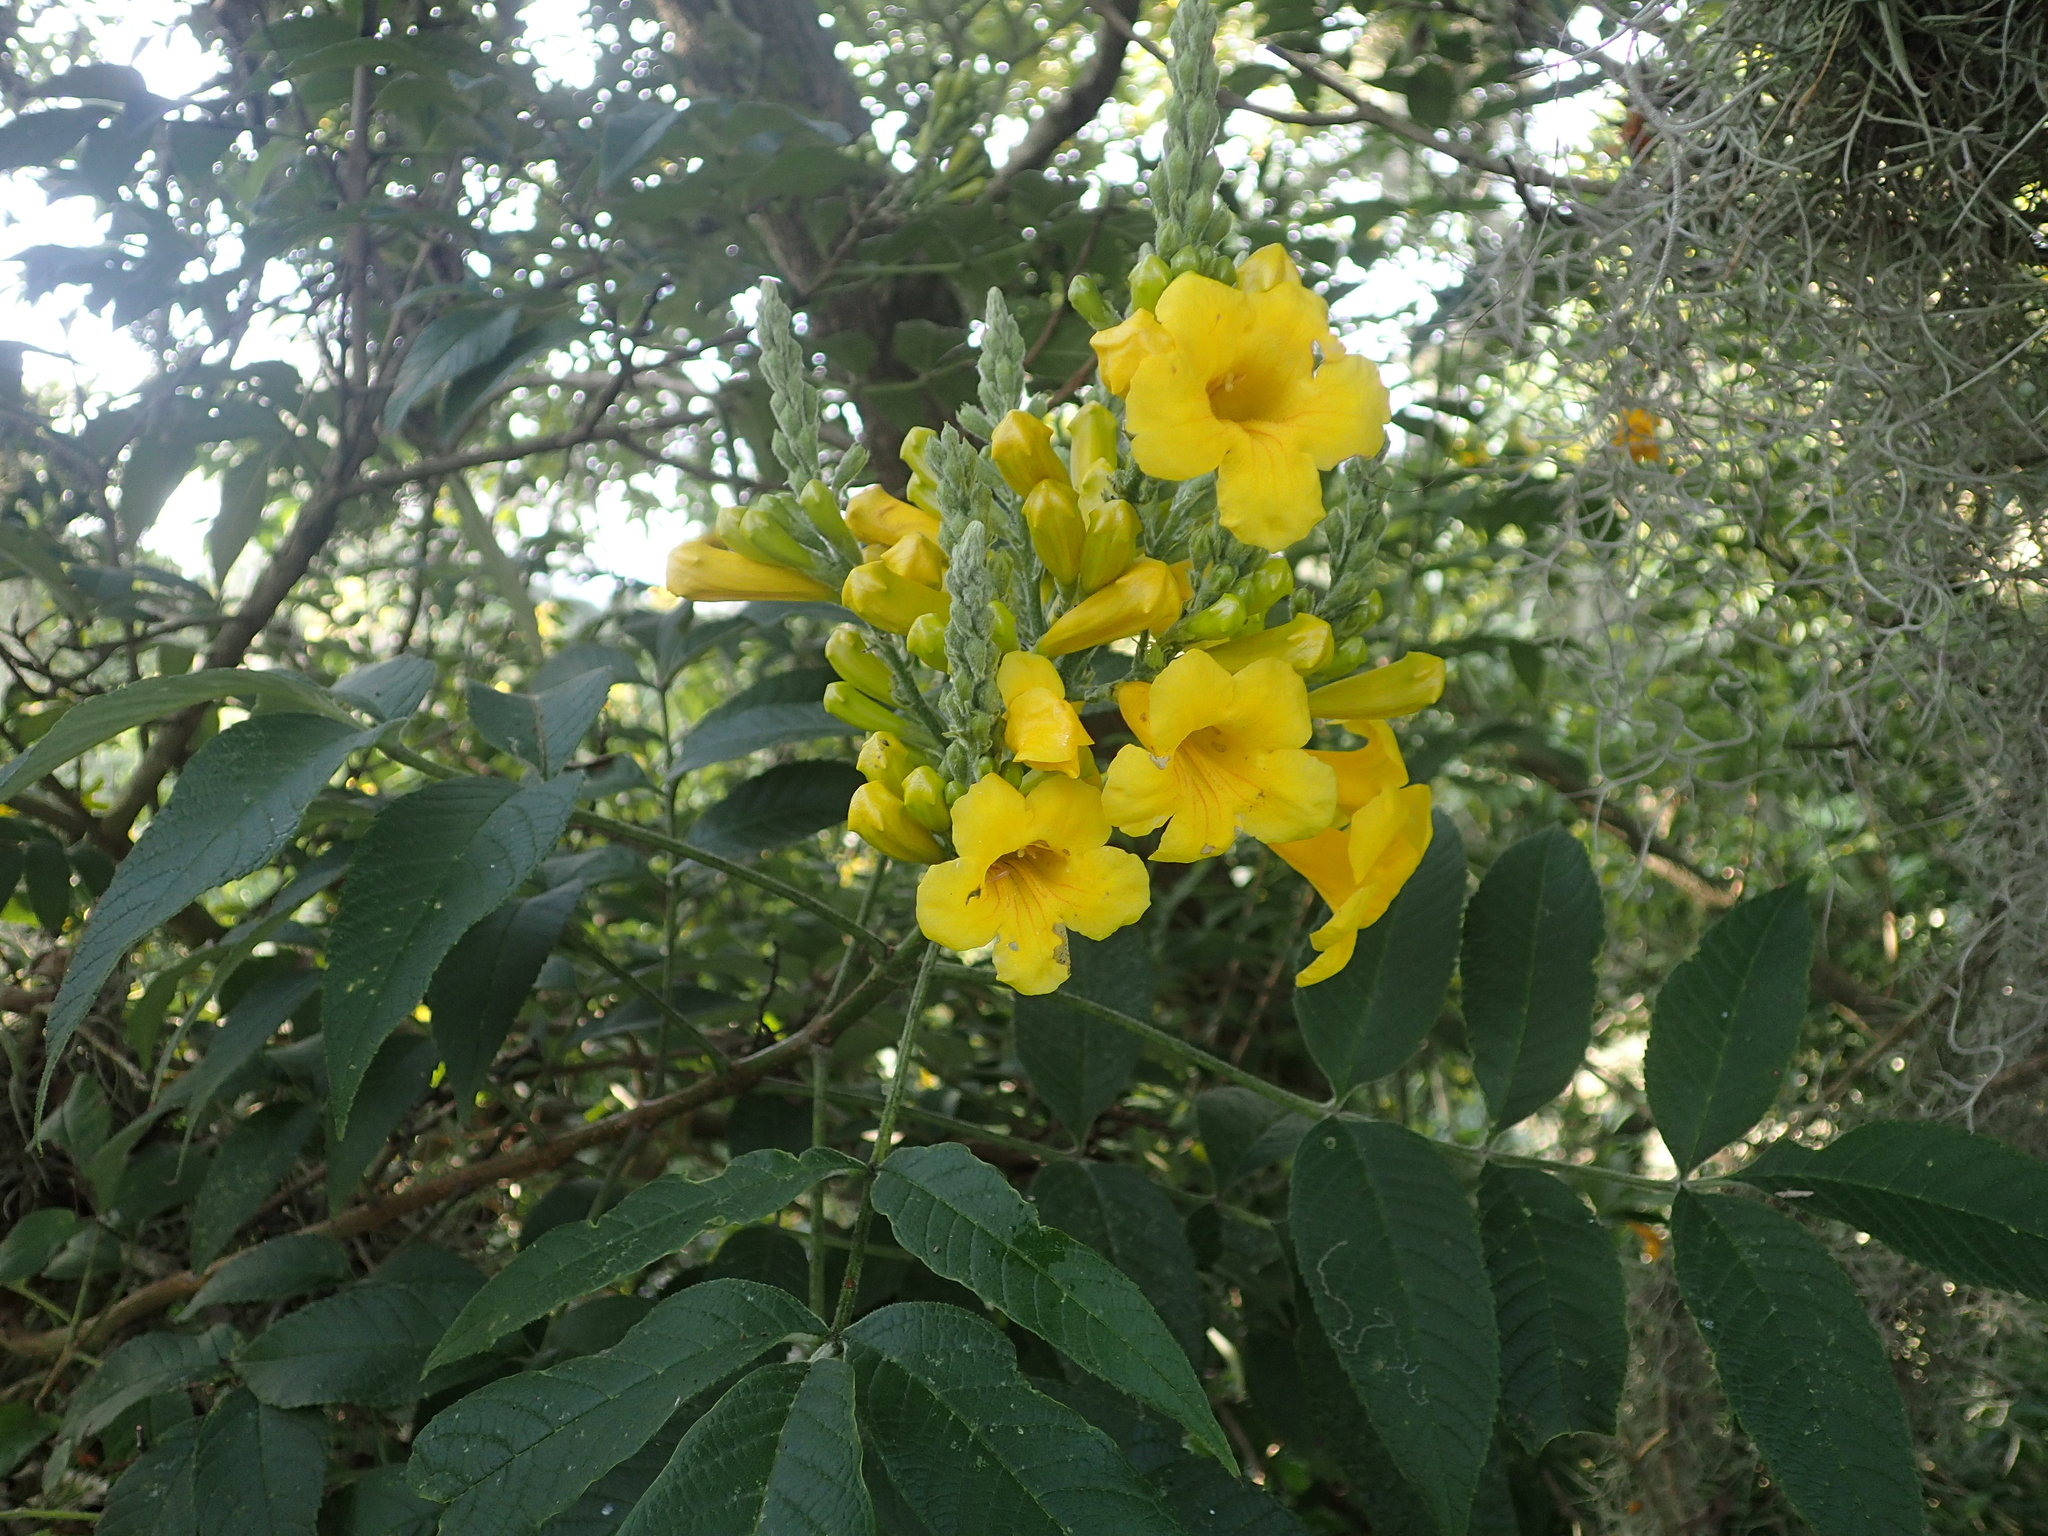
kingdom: Plantae
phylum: Tracheophyta
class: Magnoliopsida
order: Lamiales
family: Bignoniaceae
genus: Tecoma
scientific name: Tecoma stans
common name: Yellow trumpetbush
